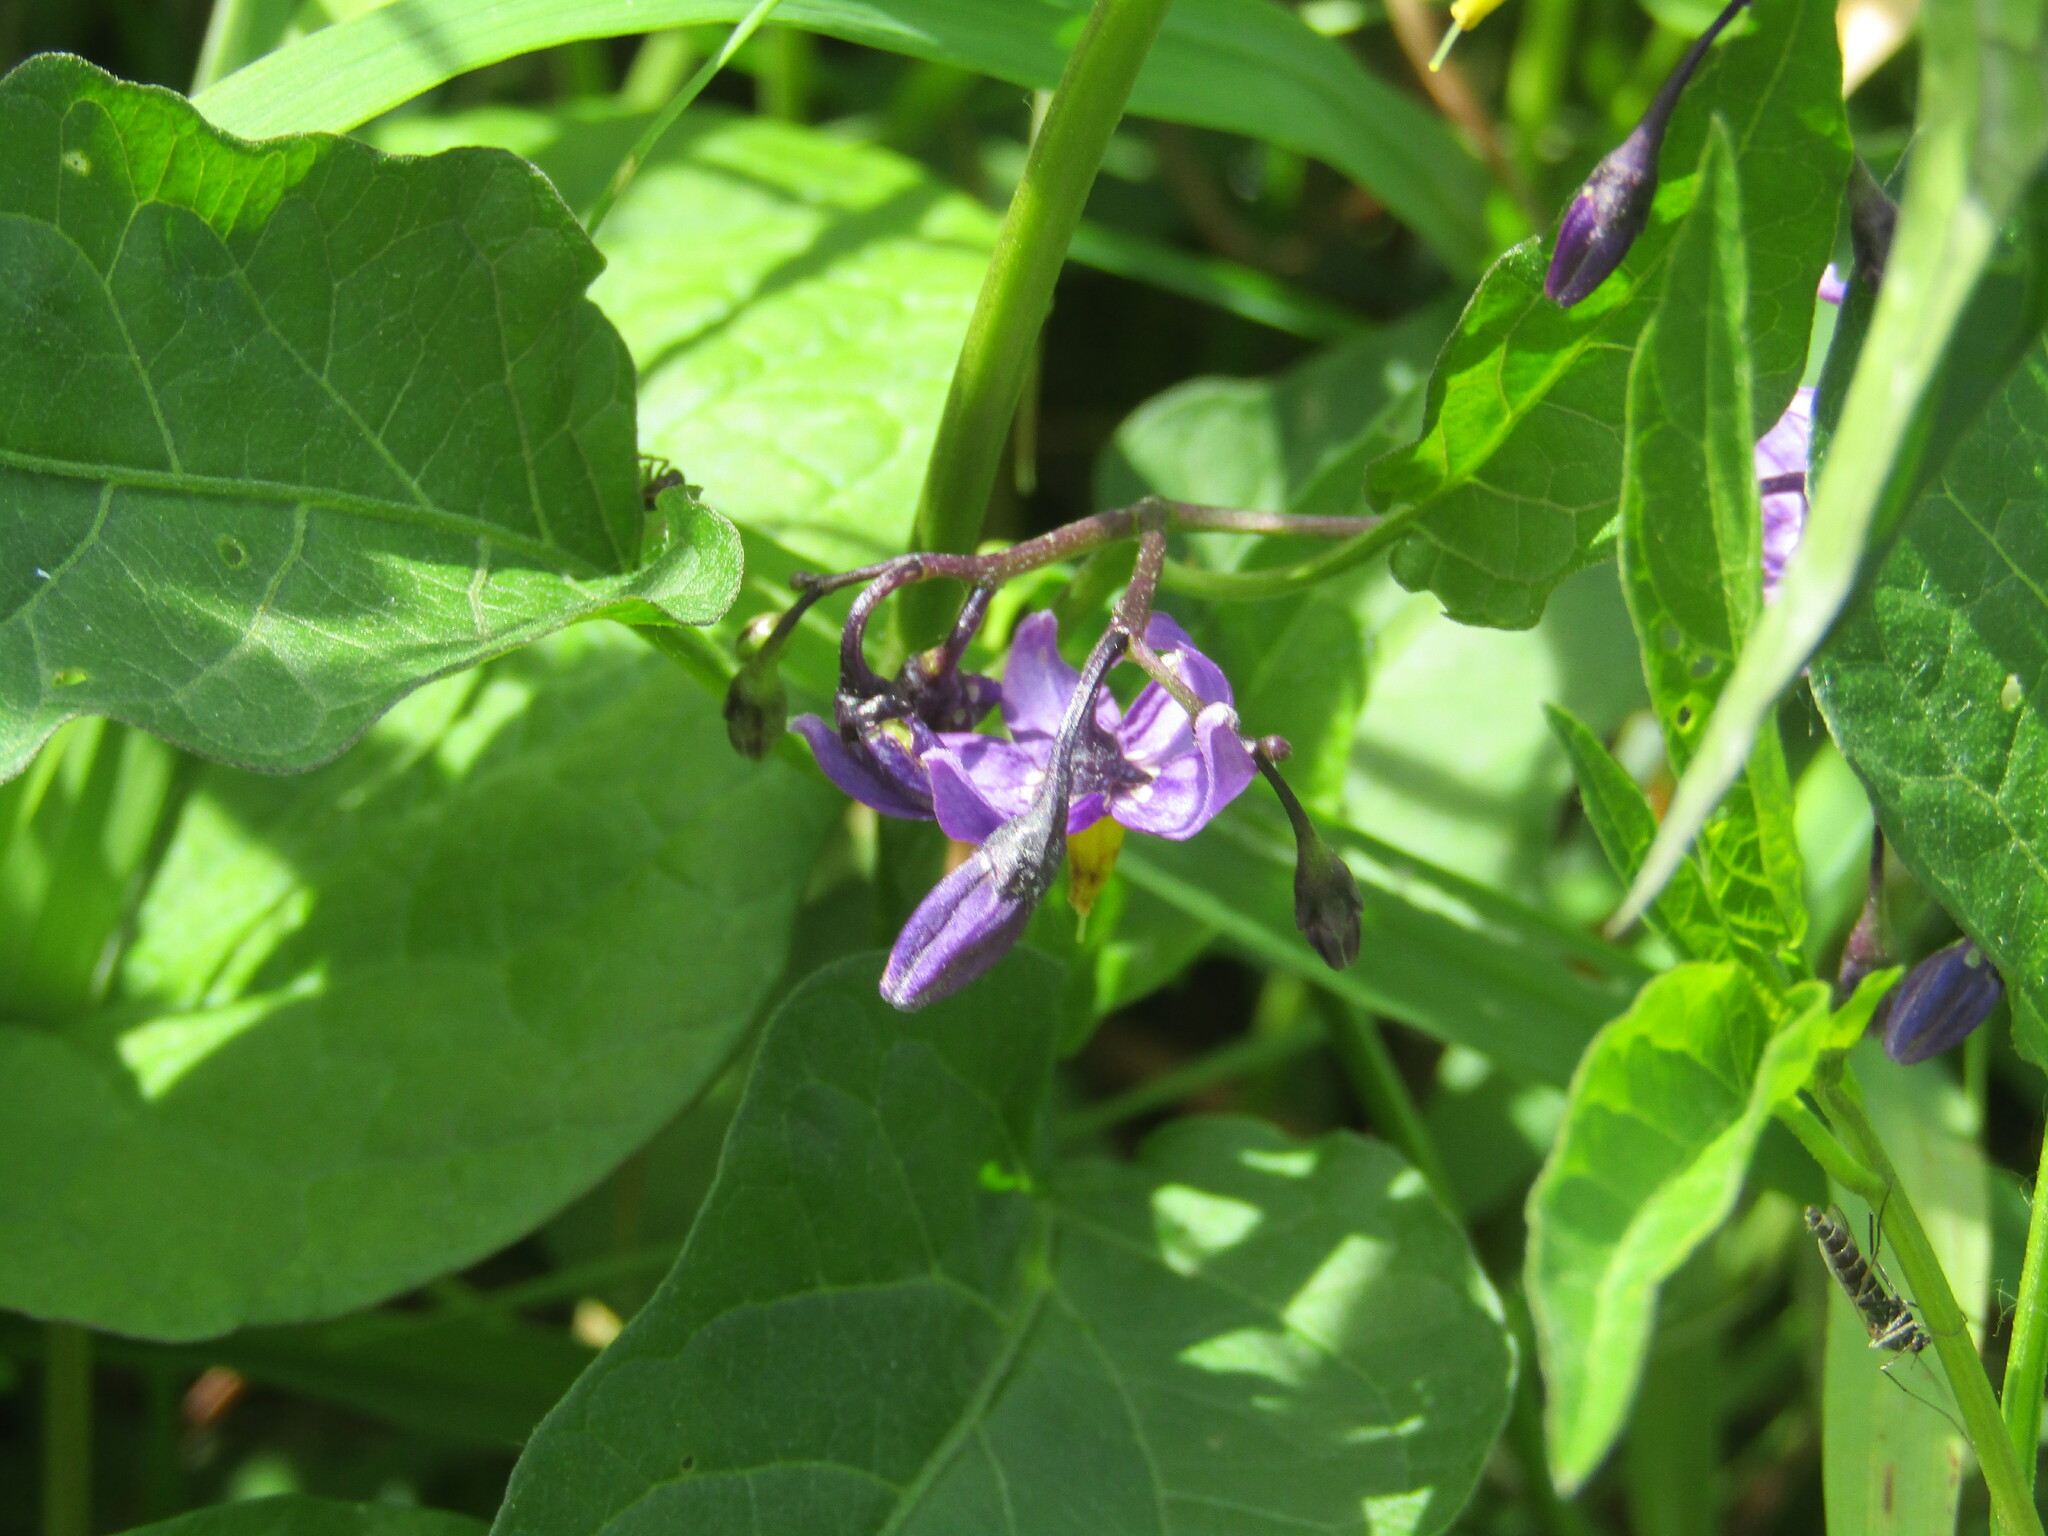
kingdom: Plantae
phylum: Tracheophyta
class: Magnoliopsida
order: Solanales
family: Solanaceae
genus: Solanum
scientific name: Solanum dulcamara
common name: Climbing nightshade
